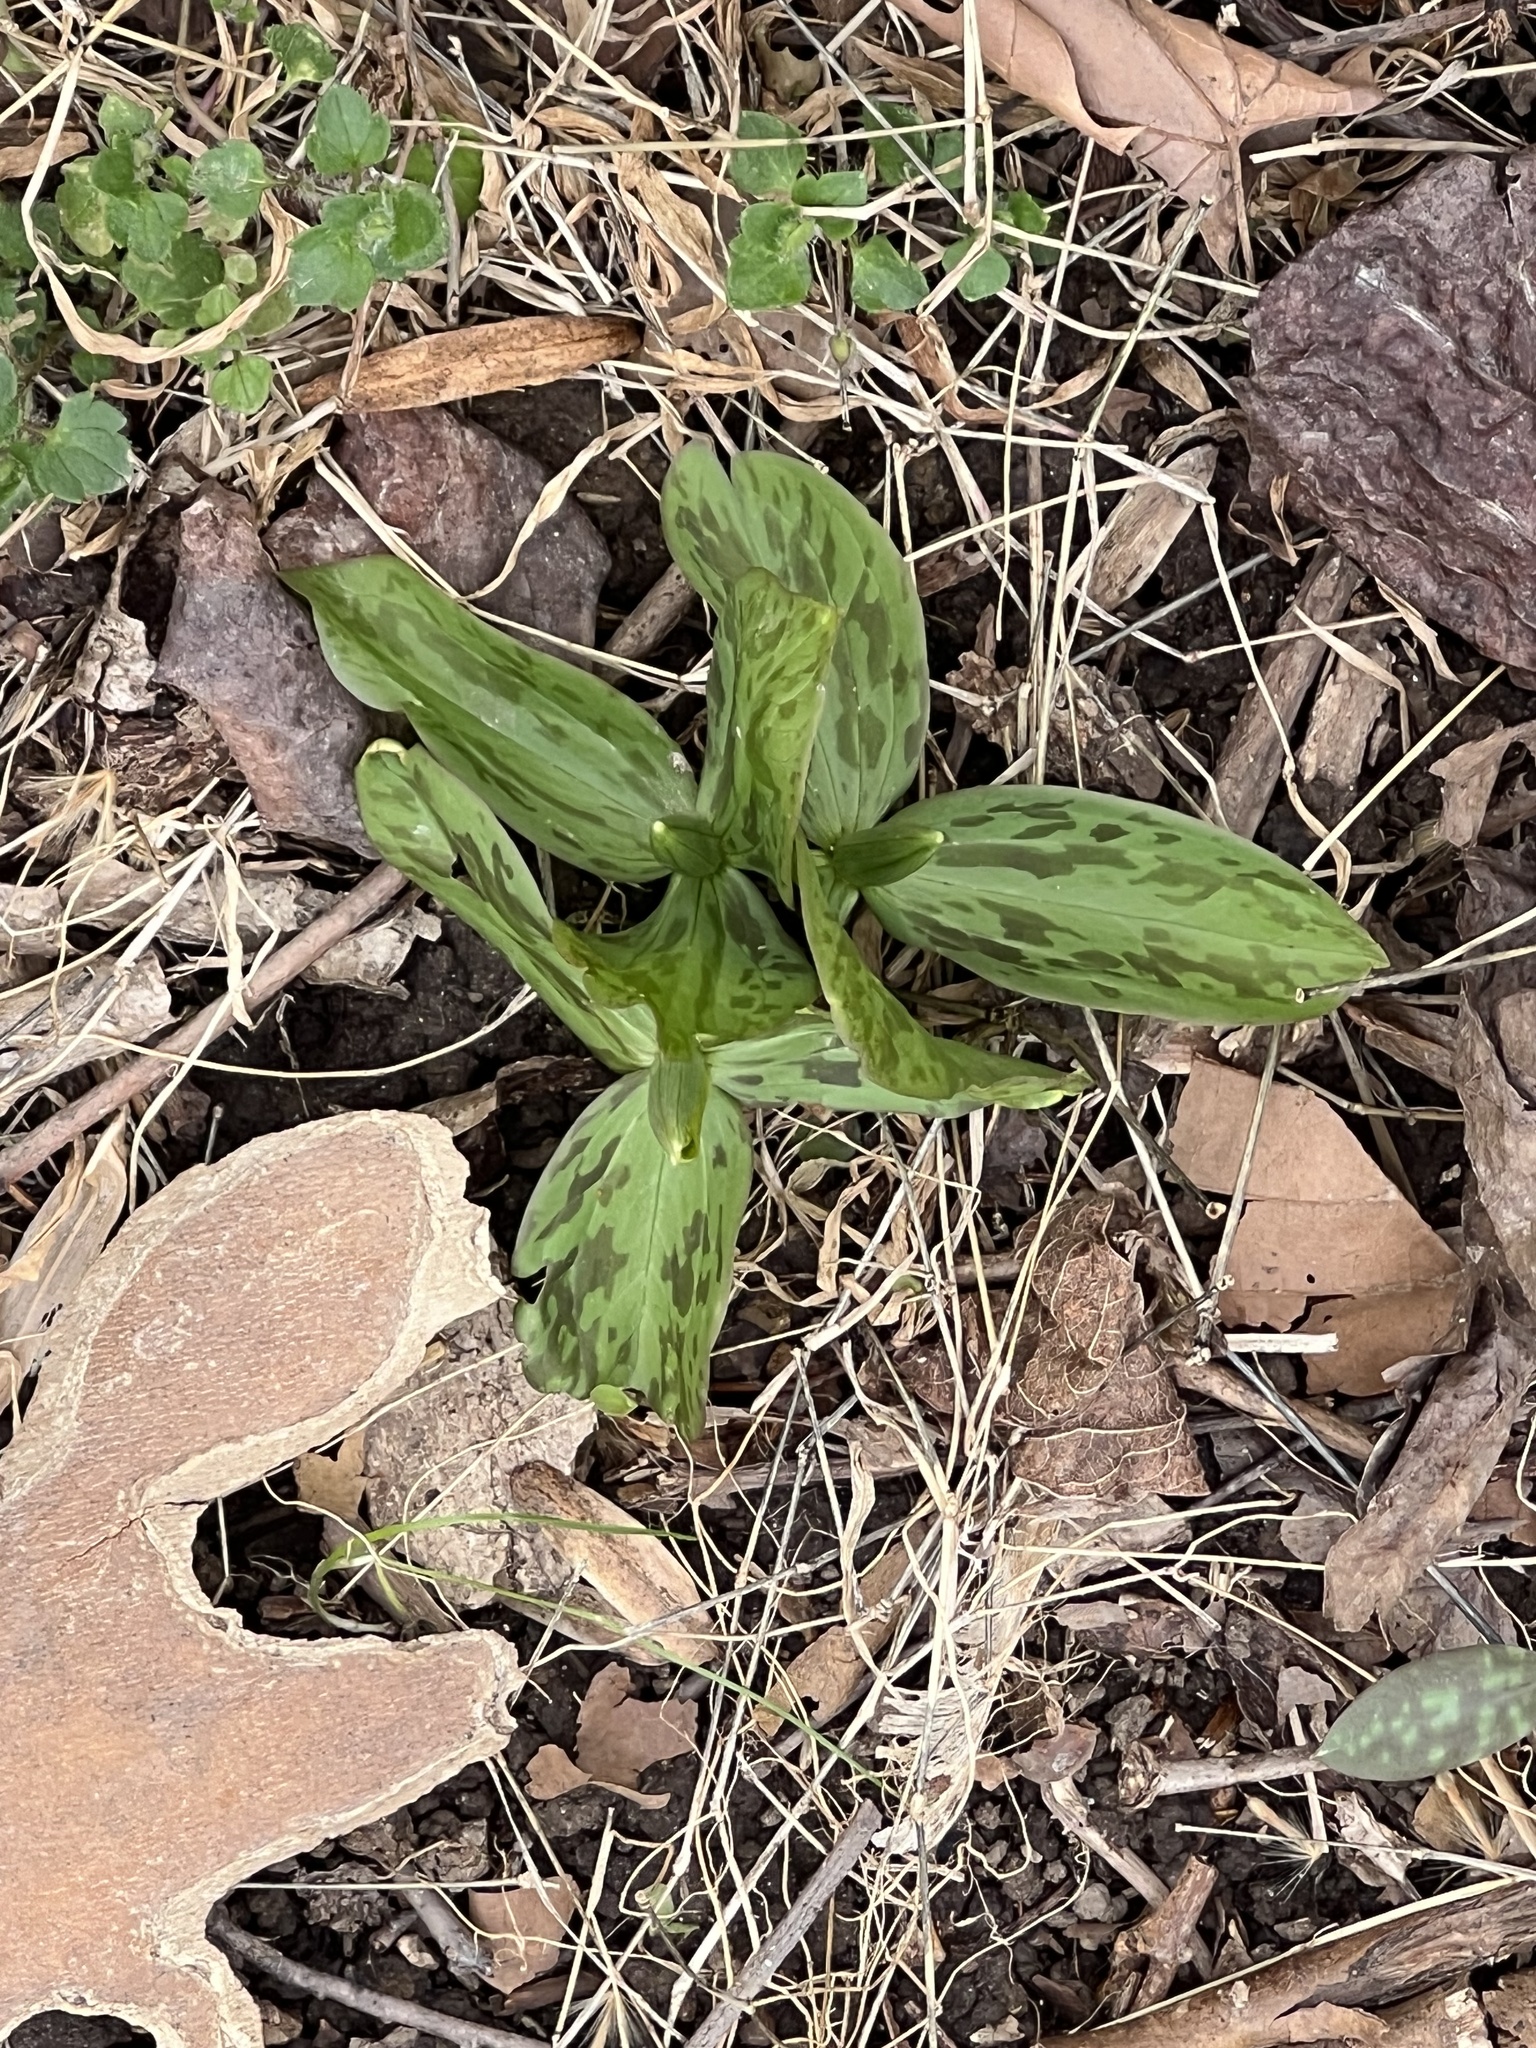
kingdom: Plantae
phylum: Tracheophyta
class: Liliopsida
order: Liliales
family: Melanthiaceae
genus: Trillium
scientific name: Trillium sessile
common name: Sessile trillium
